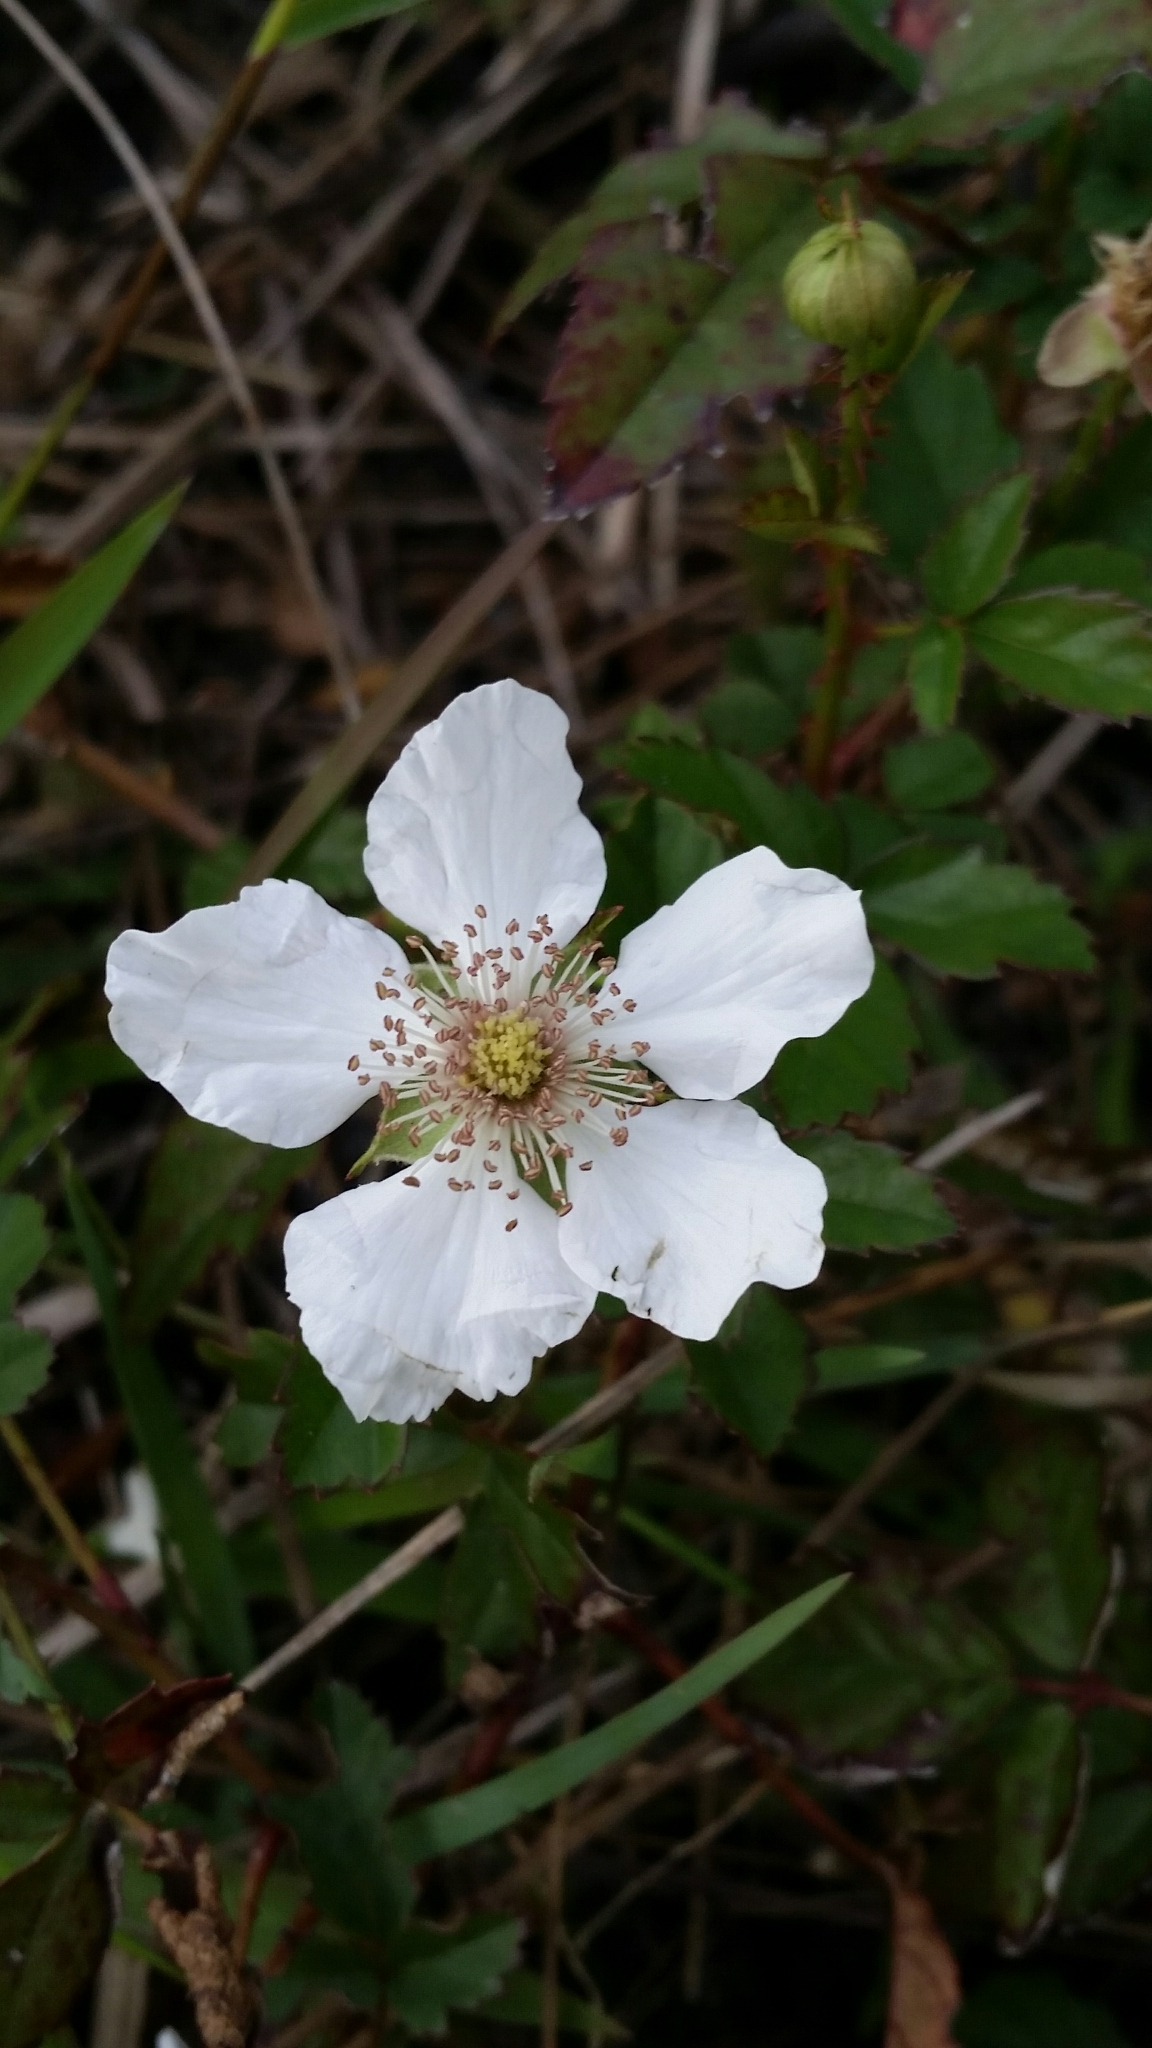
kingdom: Plantae
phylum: Tracheophyta
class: Magnoliopsida
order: Rosales
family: Rosaceae
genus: Rubus
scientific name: Rubus trivialis
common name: Southern dewberry
